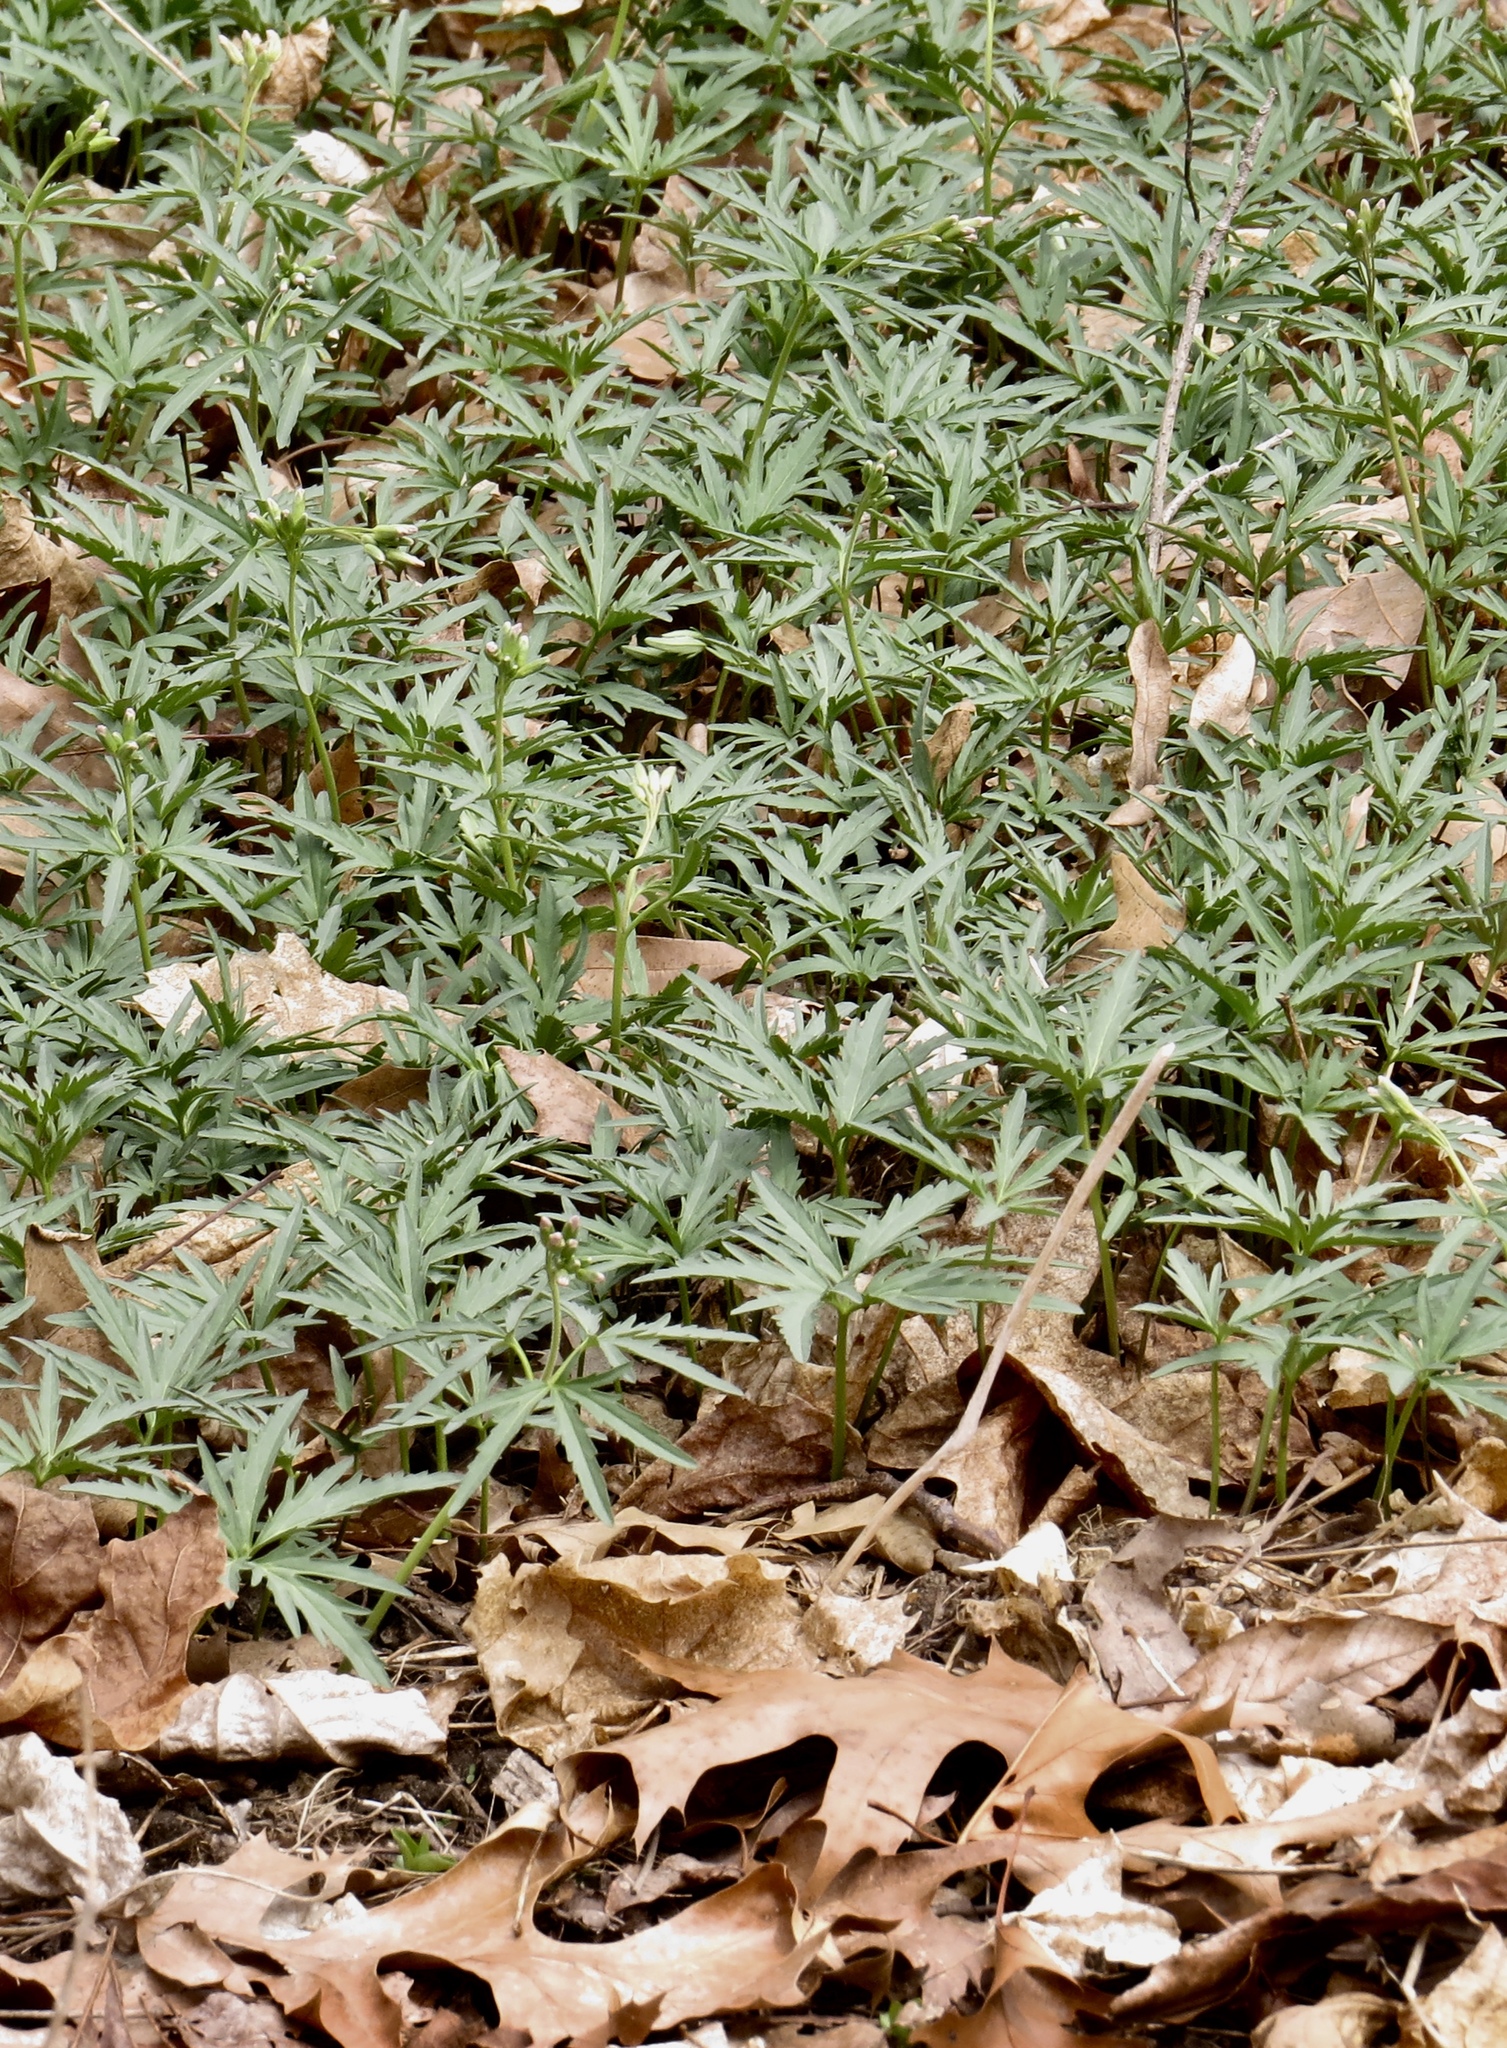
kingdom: Plantae
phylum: Tracheophyta
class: Magnoliopsida
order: Brassicales
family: Brassicaceae
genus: Cardamine
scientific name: Cardamine concatenata
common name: Cut-leaf toothcup
